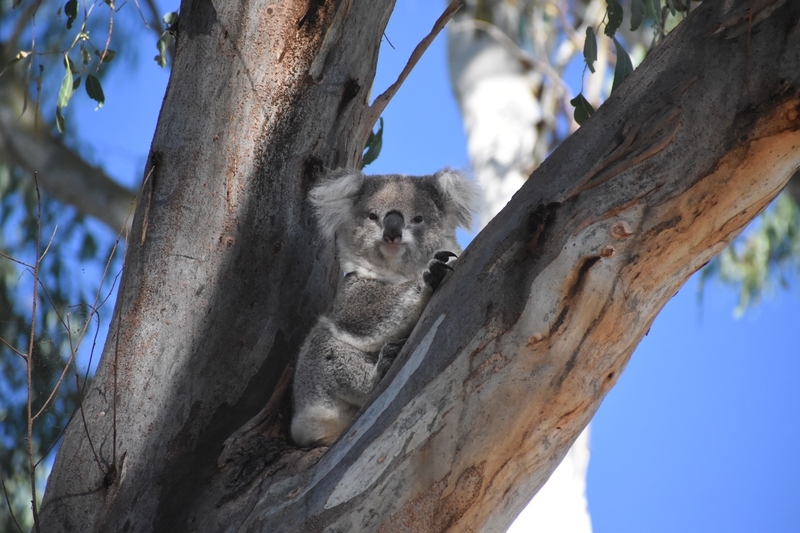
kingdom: Animalia
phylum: Chordata
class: Mammalia
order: Diprotodontia
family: Phascolarctidae
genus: Phascolarctos
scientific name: Phascolarctos cinereus
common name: Koala
